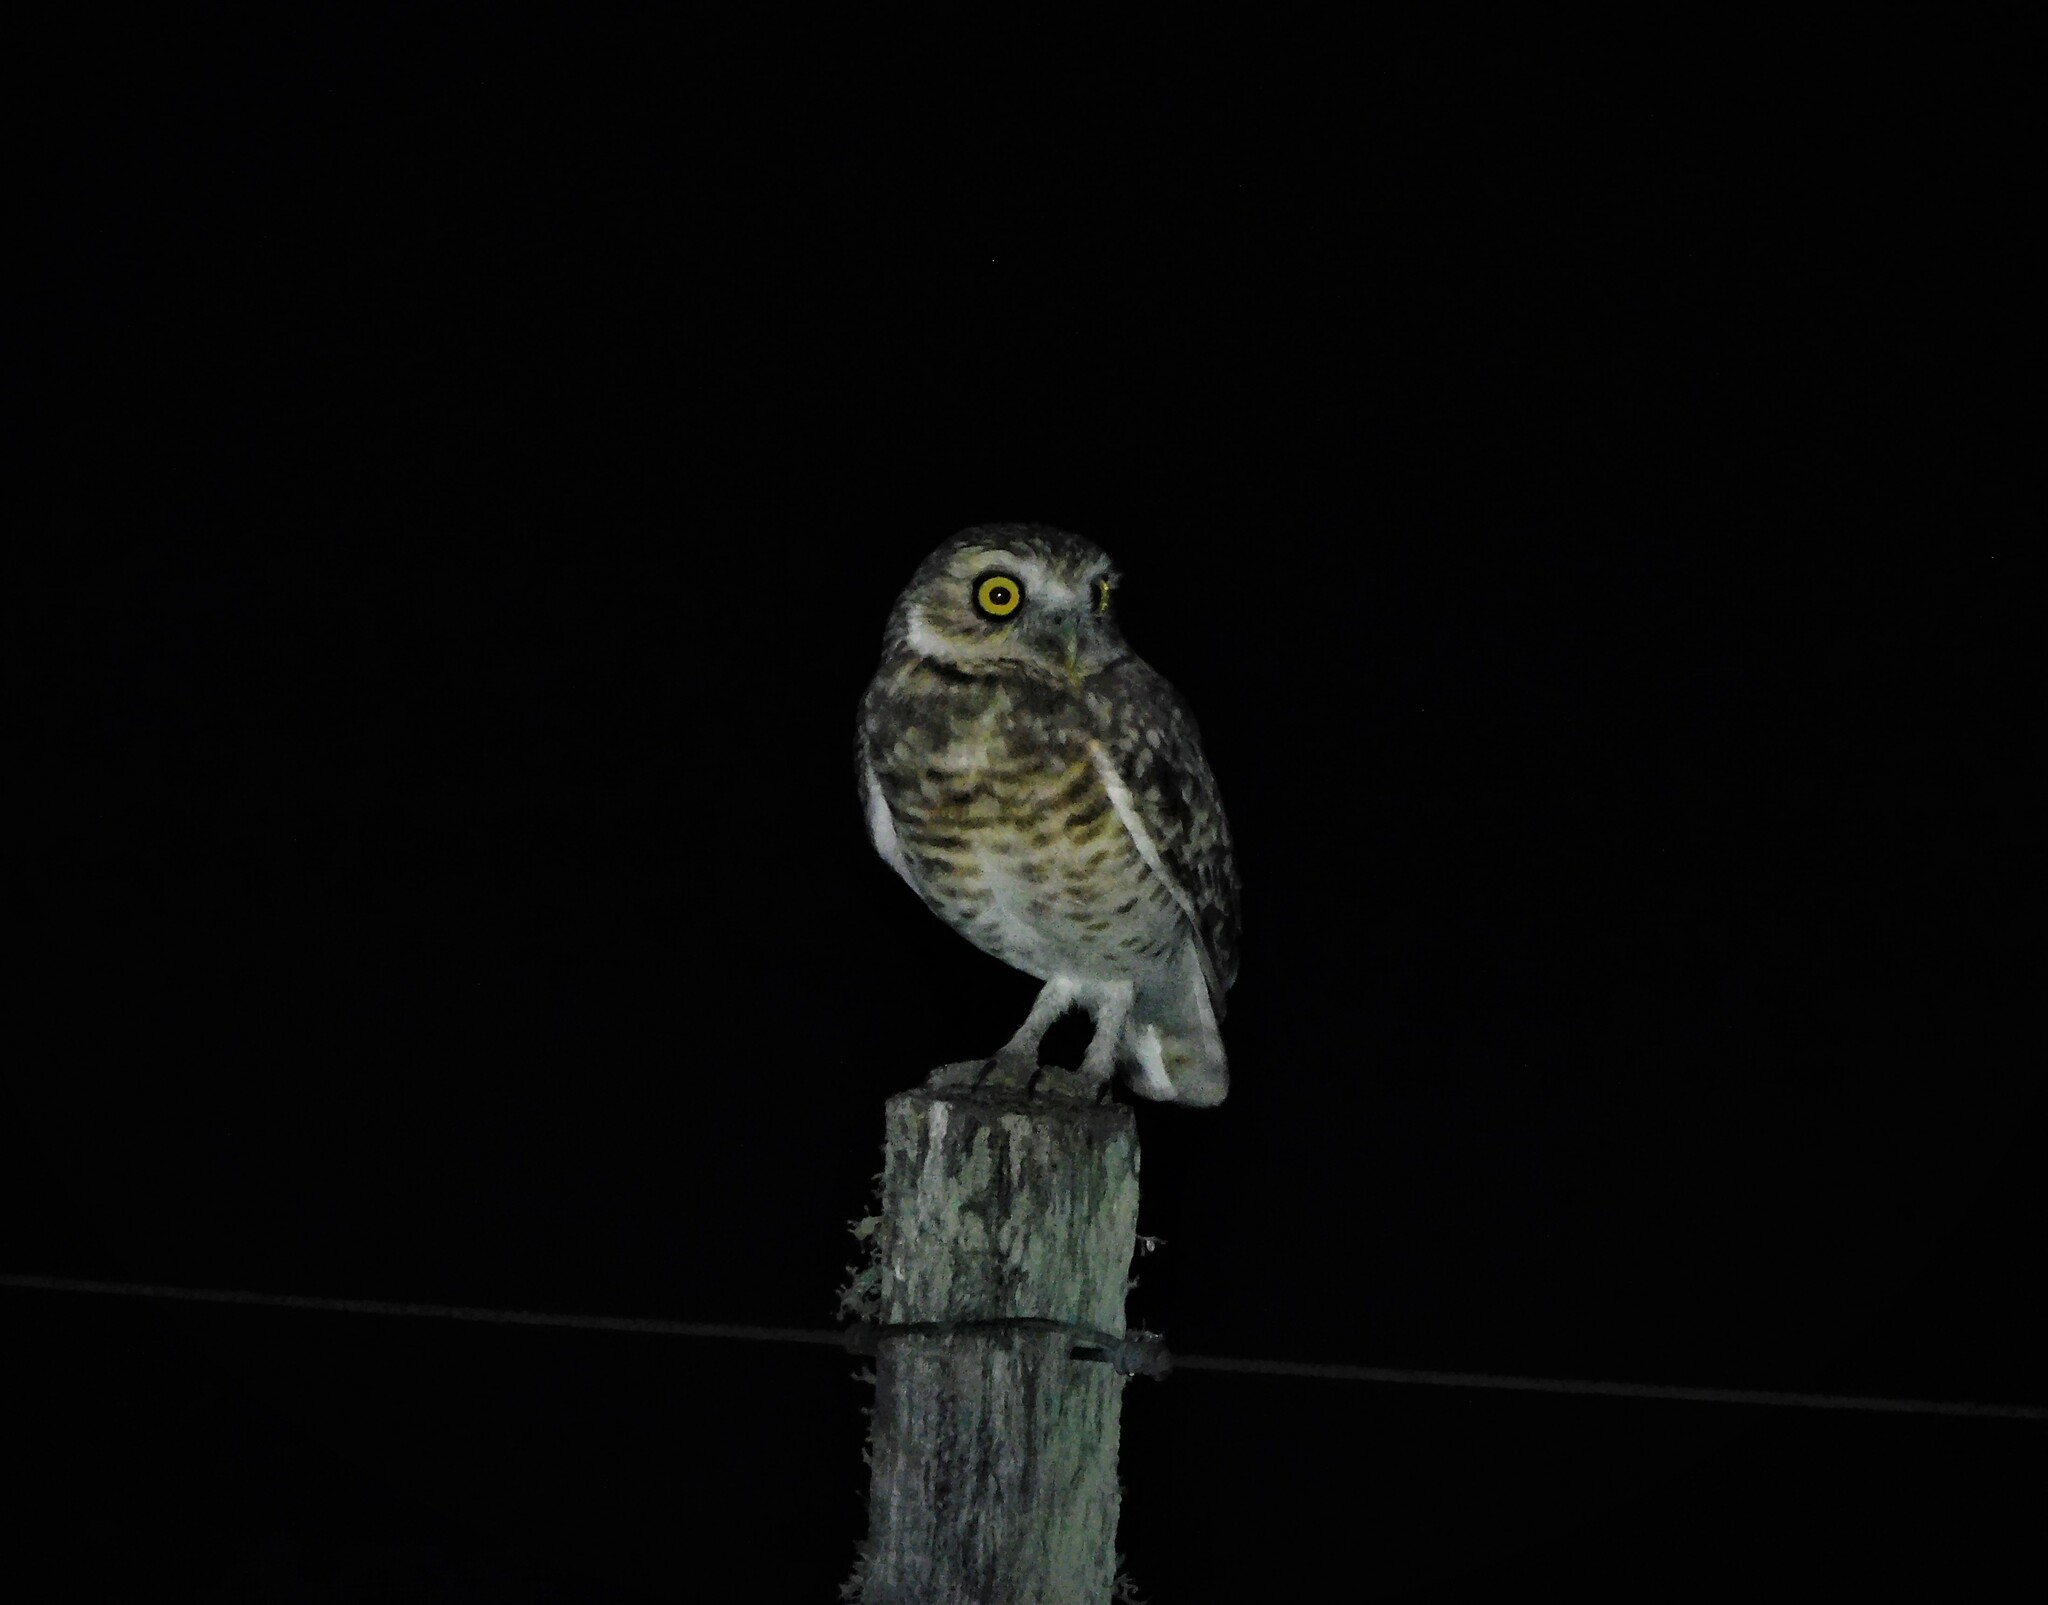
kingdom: Animalia
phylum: Chordata
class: Aves
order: Strigiformes
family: Strigidae
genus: Athene
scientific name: Athene cunicularia
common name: Burrowing owl
